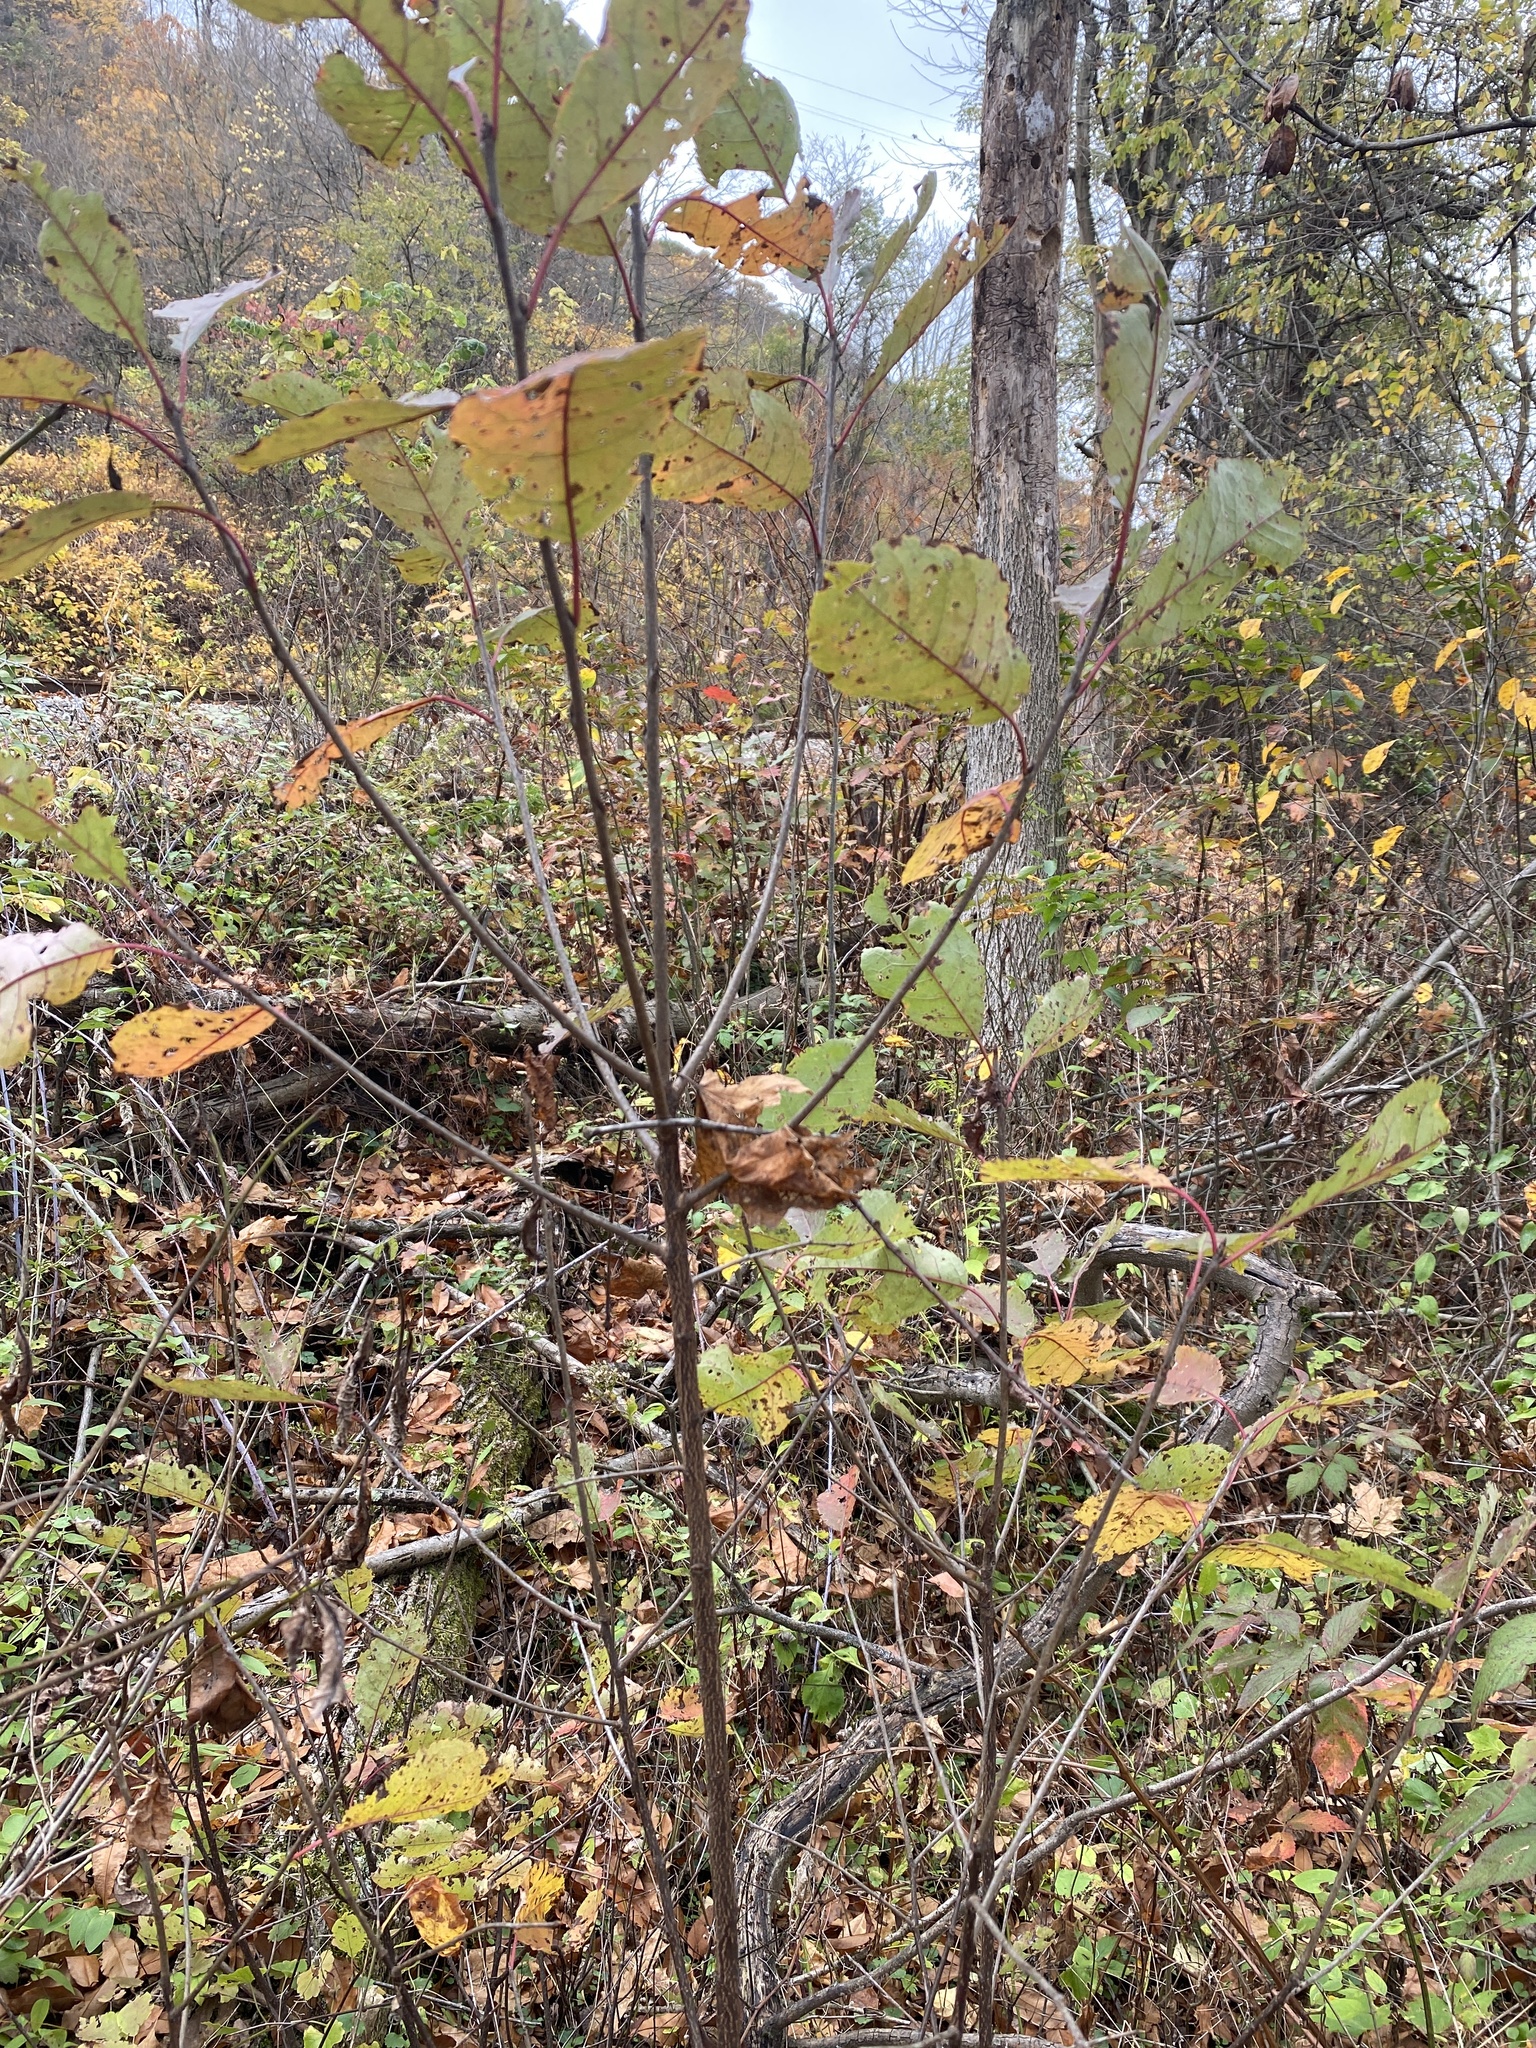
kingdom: Plantae
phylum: Tracheophyta
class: Magnoliopsida
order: Rosales
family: Rosaceae
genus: Prunus
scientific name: Prunus virginiana
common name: Chokecherry
